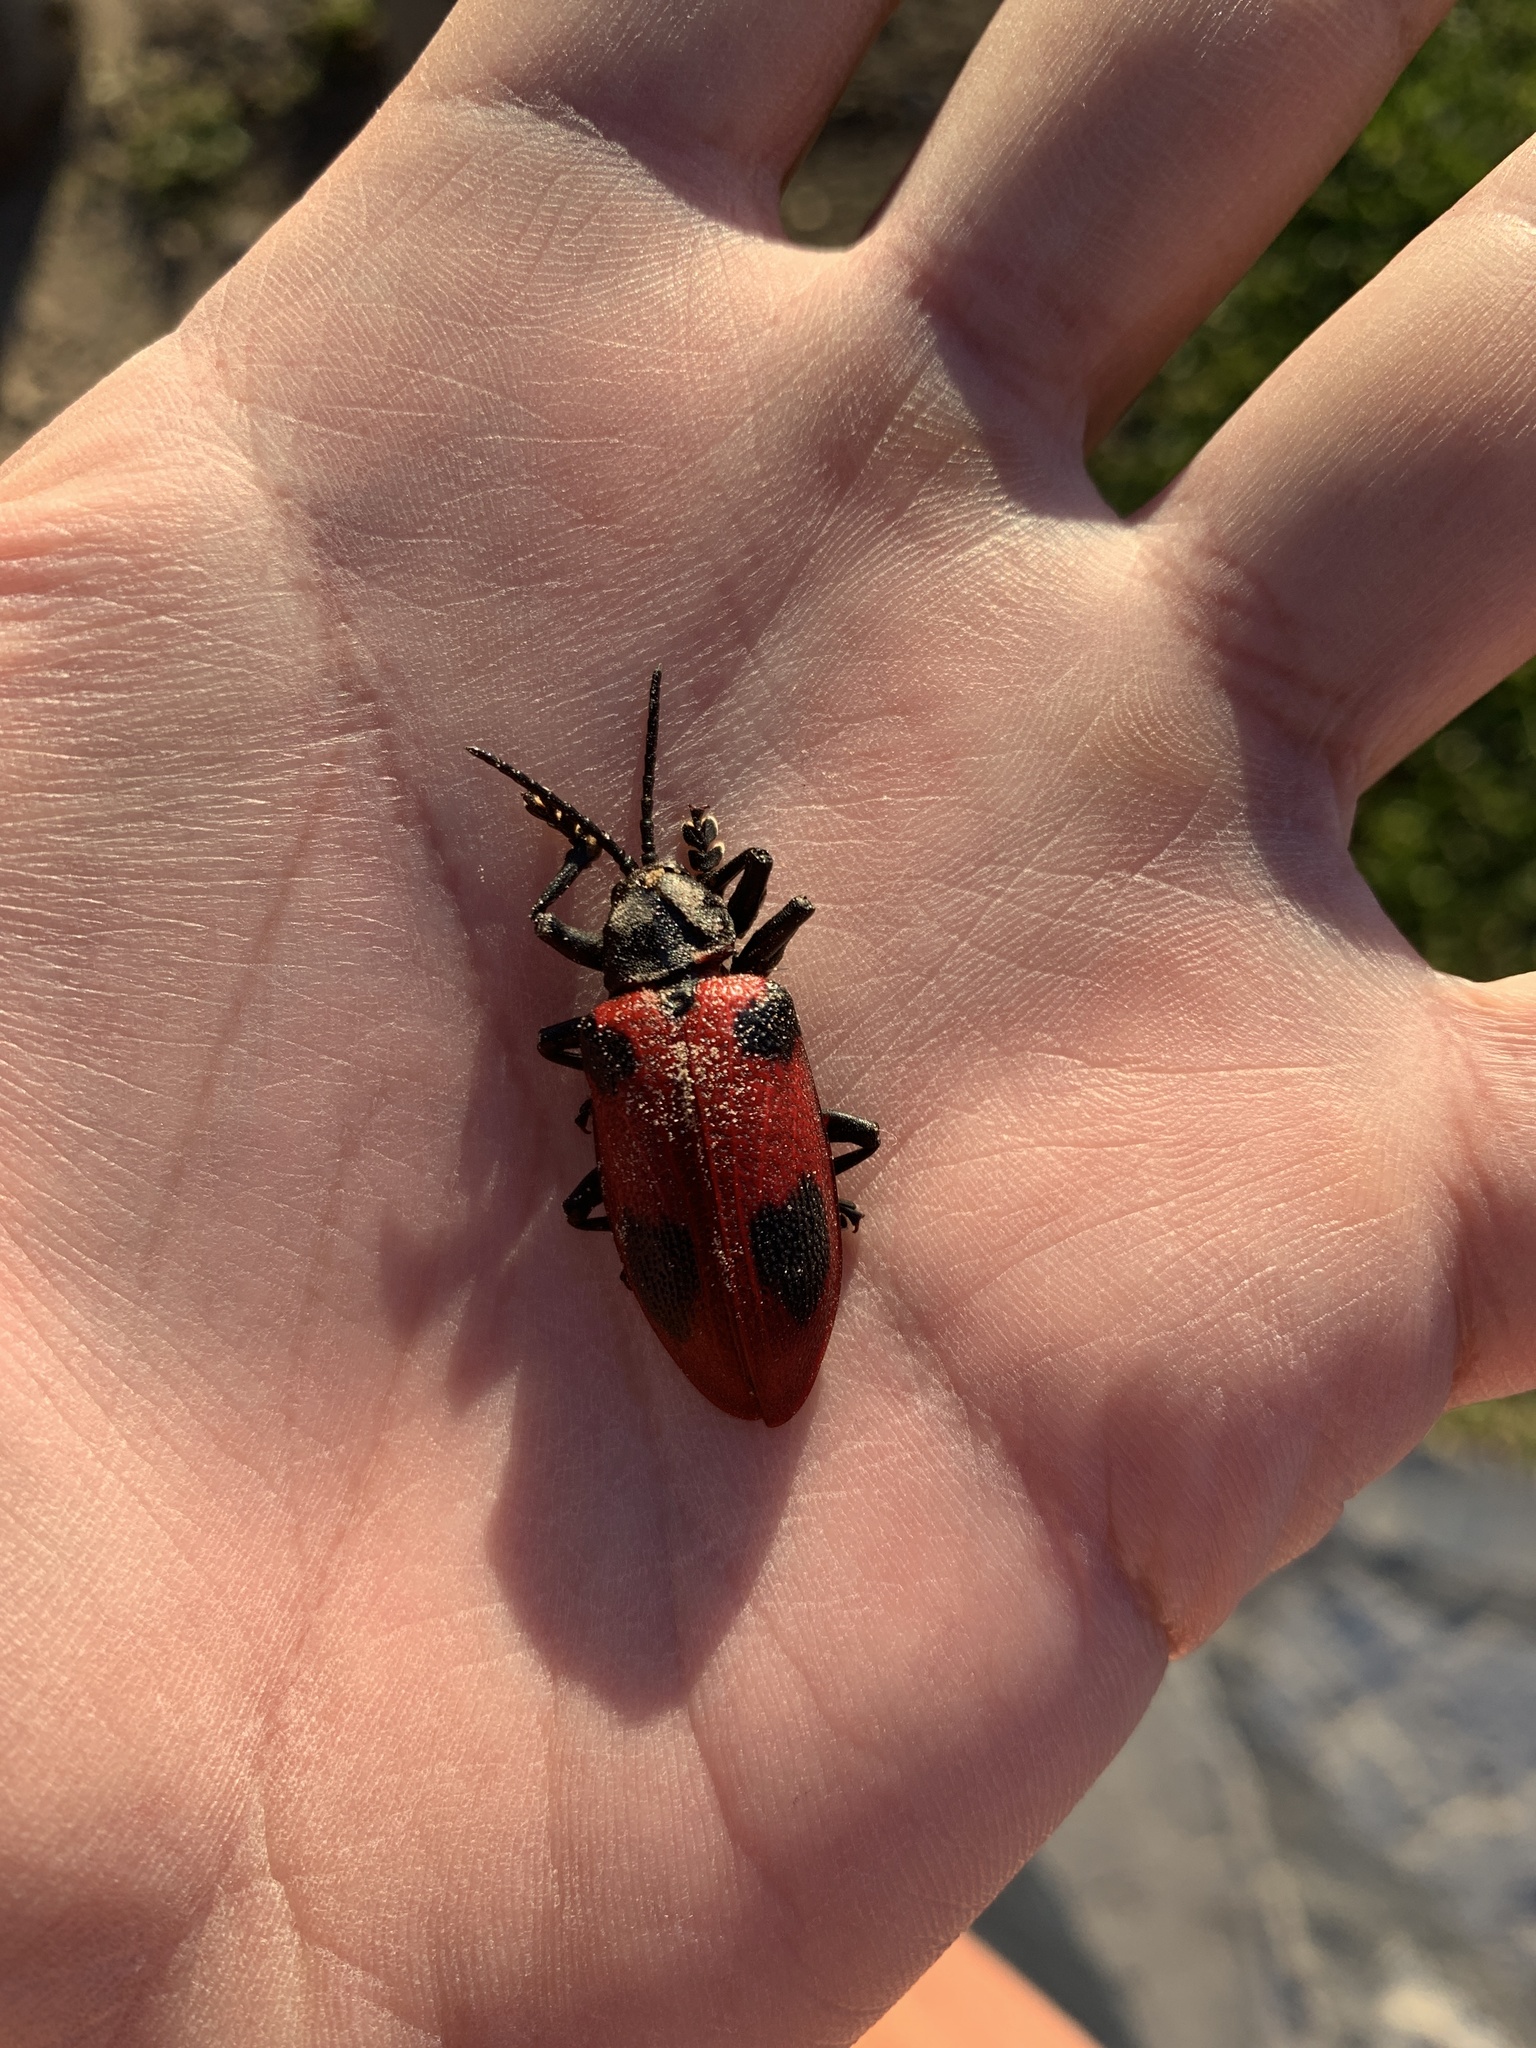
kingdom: Animalia
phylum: Arthropoda
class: Insecta
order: Coleoptera
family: Chrysomelidae
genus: Coraliomela
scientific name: Coraliomela quadrimaculata
